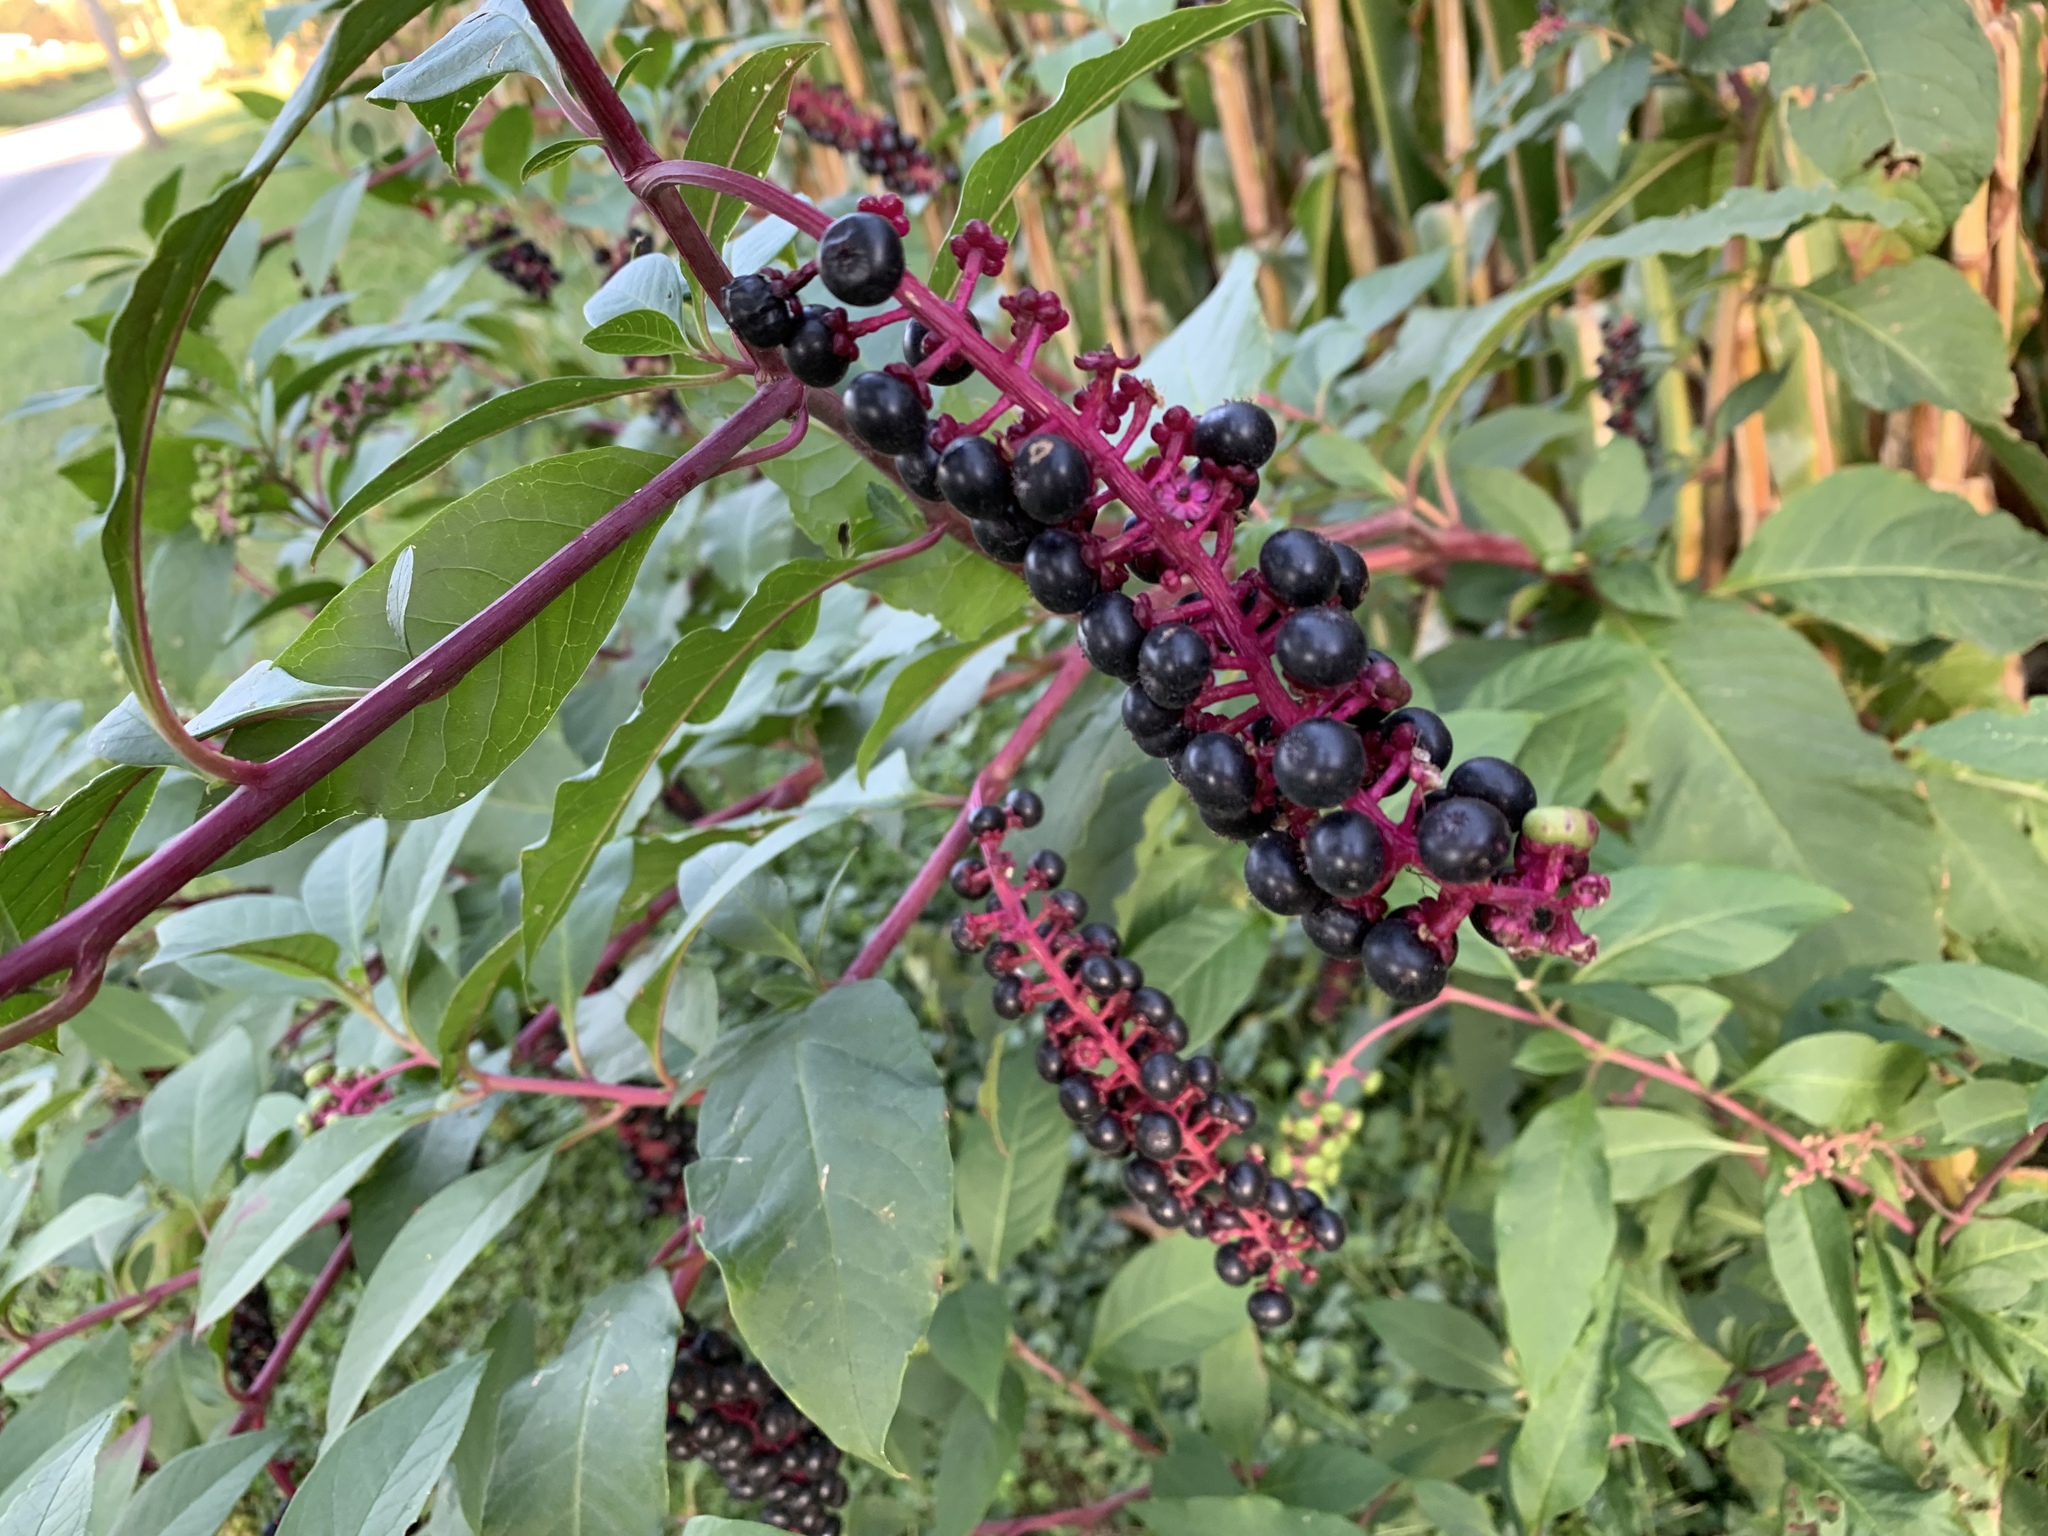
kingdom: Plantae
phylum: Tracheophyta
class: Magnoliopsida
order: Caryophyllales
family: Phytolaccaceae
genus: Phytolacca
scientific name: Phytolacca americana
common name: American pokeweed
